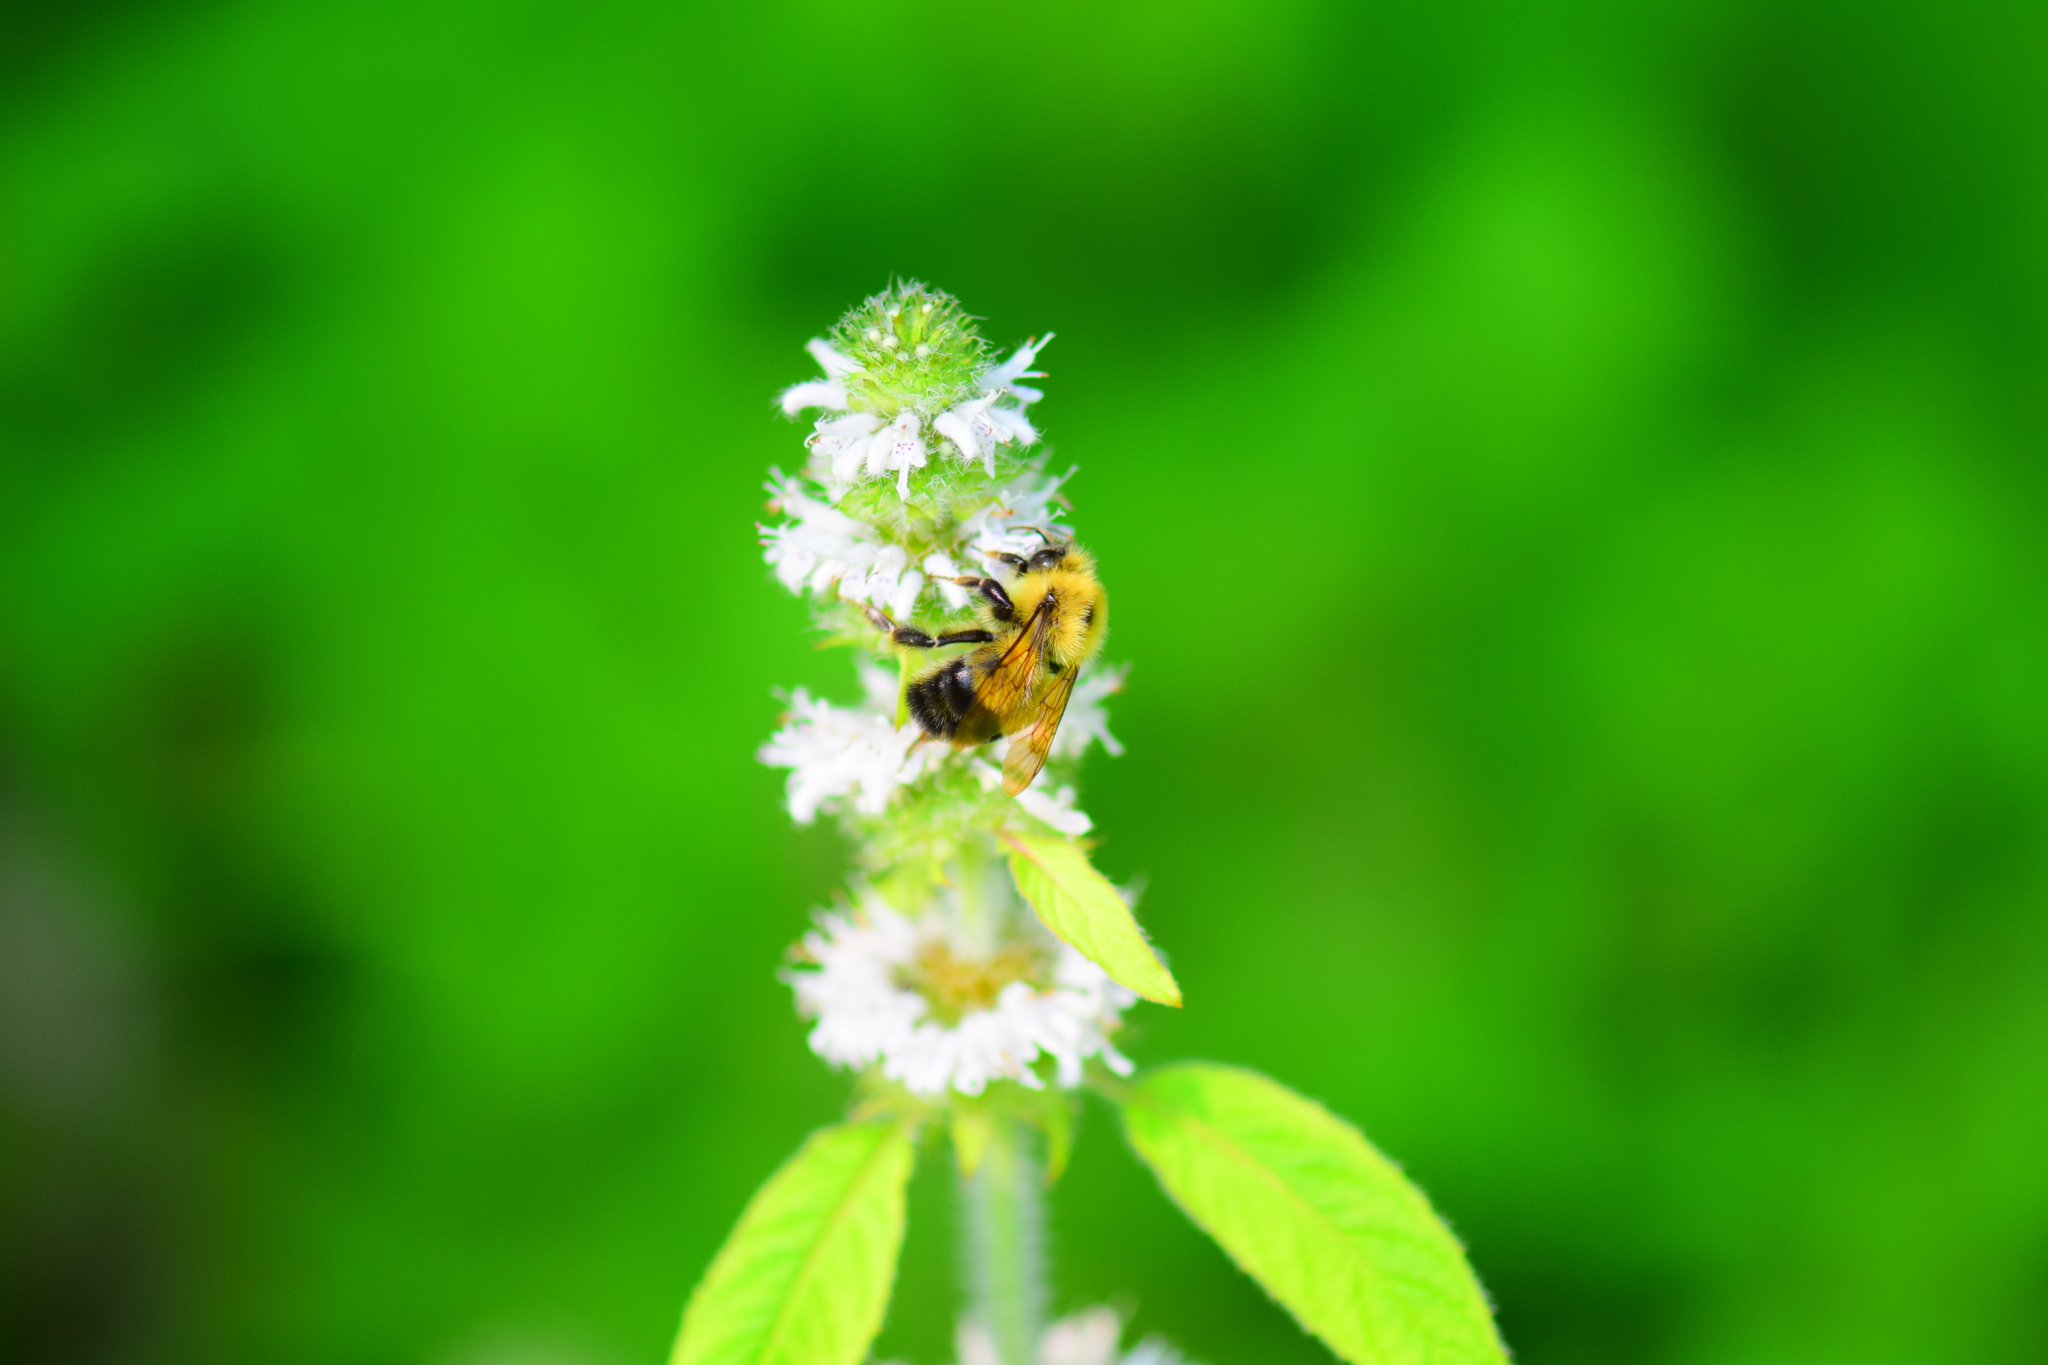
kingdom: Animalia
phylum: Arthropoda
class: Insecta
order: Hymenoptera
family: Apidae
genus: Bombus
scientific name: Bombus perplexus
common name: Confusing bumble bee
